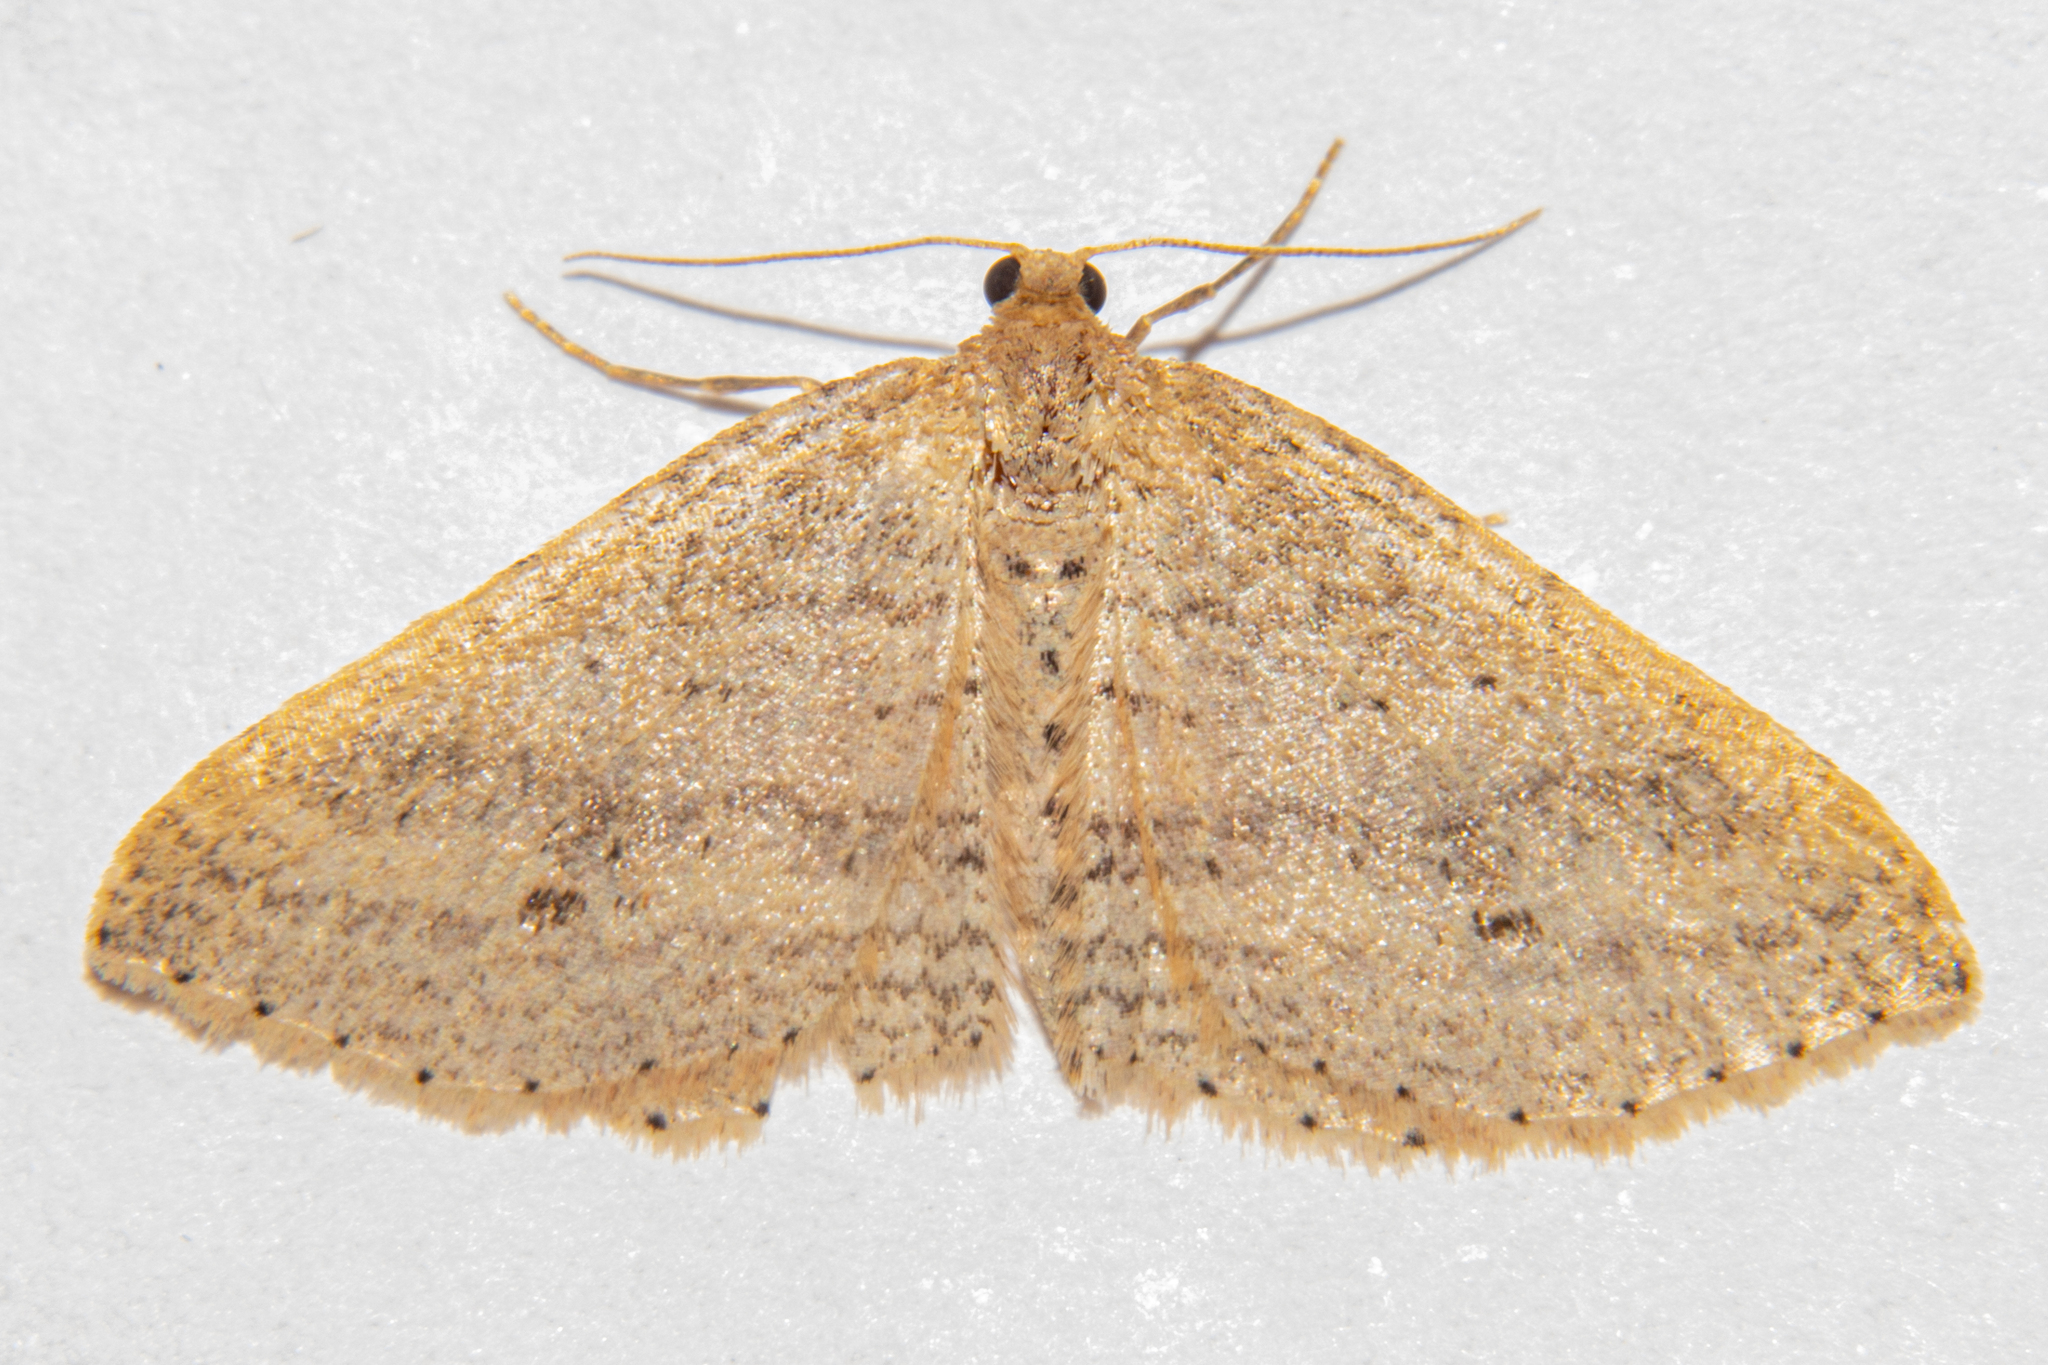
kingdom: Animalia
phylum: Arthropoda
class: Insecta
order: Lepidoptera
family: Geometridae
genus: Epicyme
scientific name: Epicyme rubropunctaria
